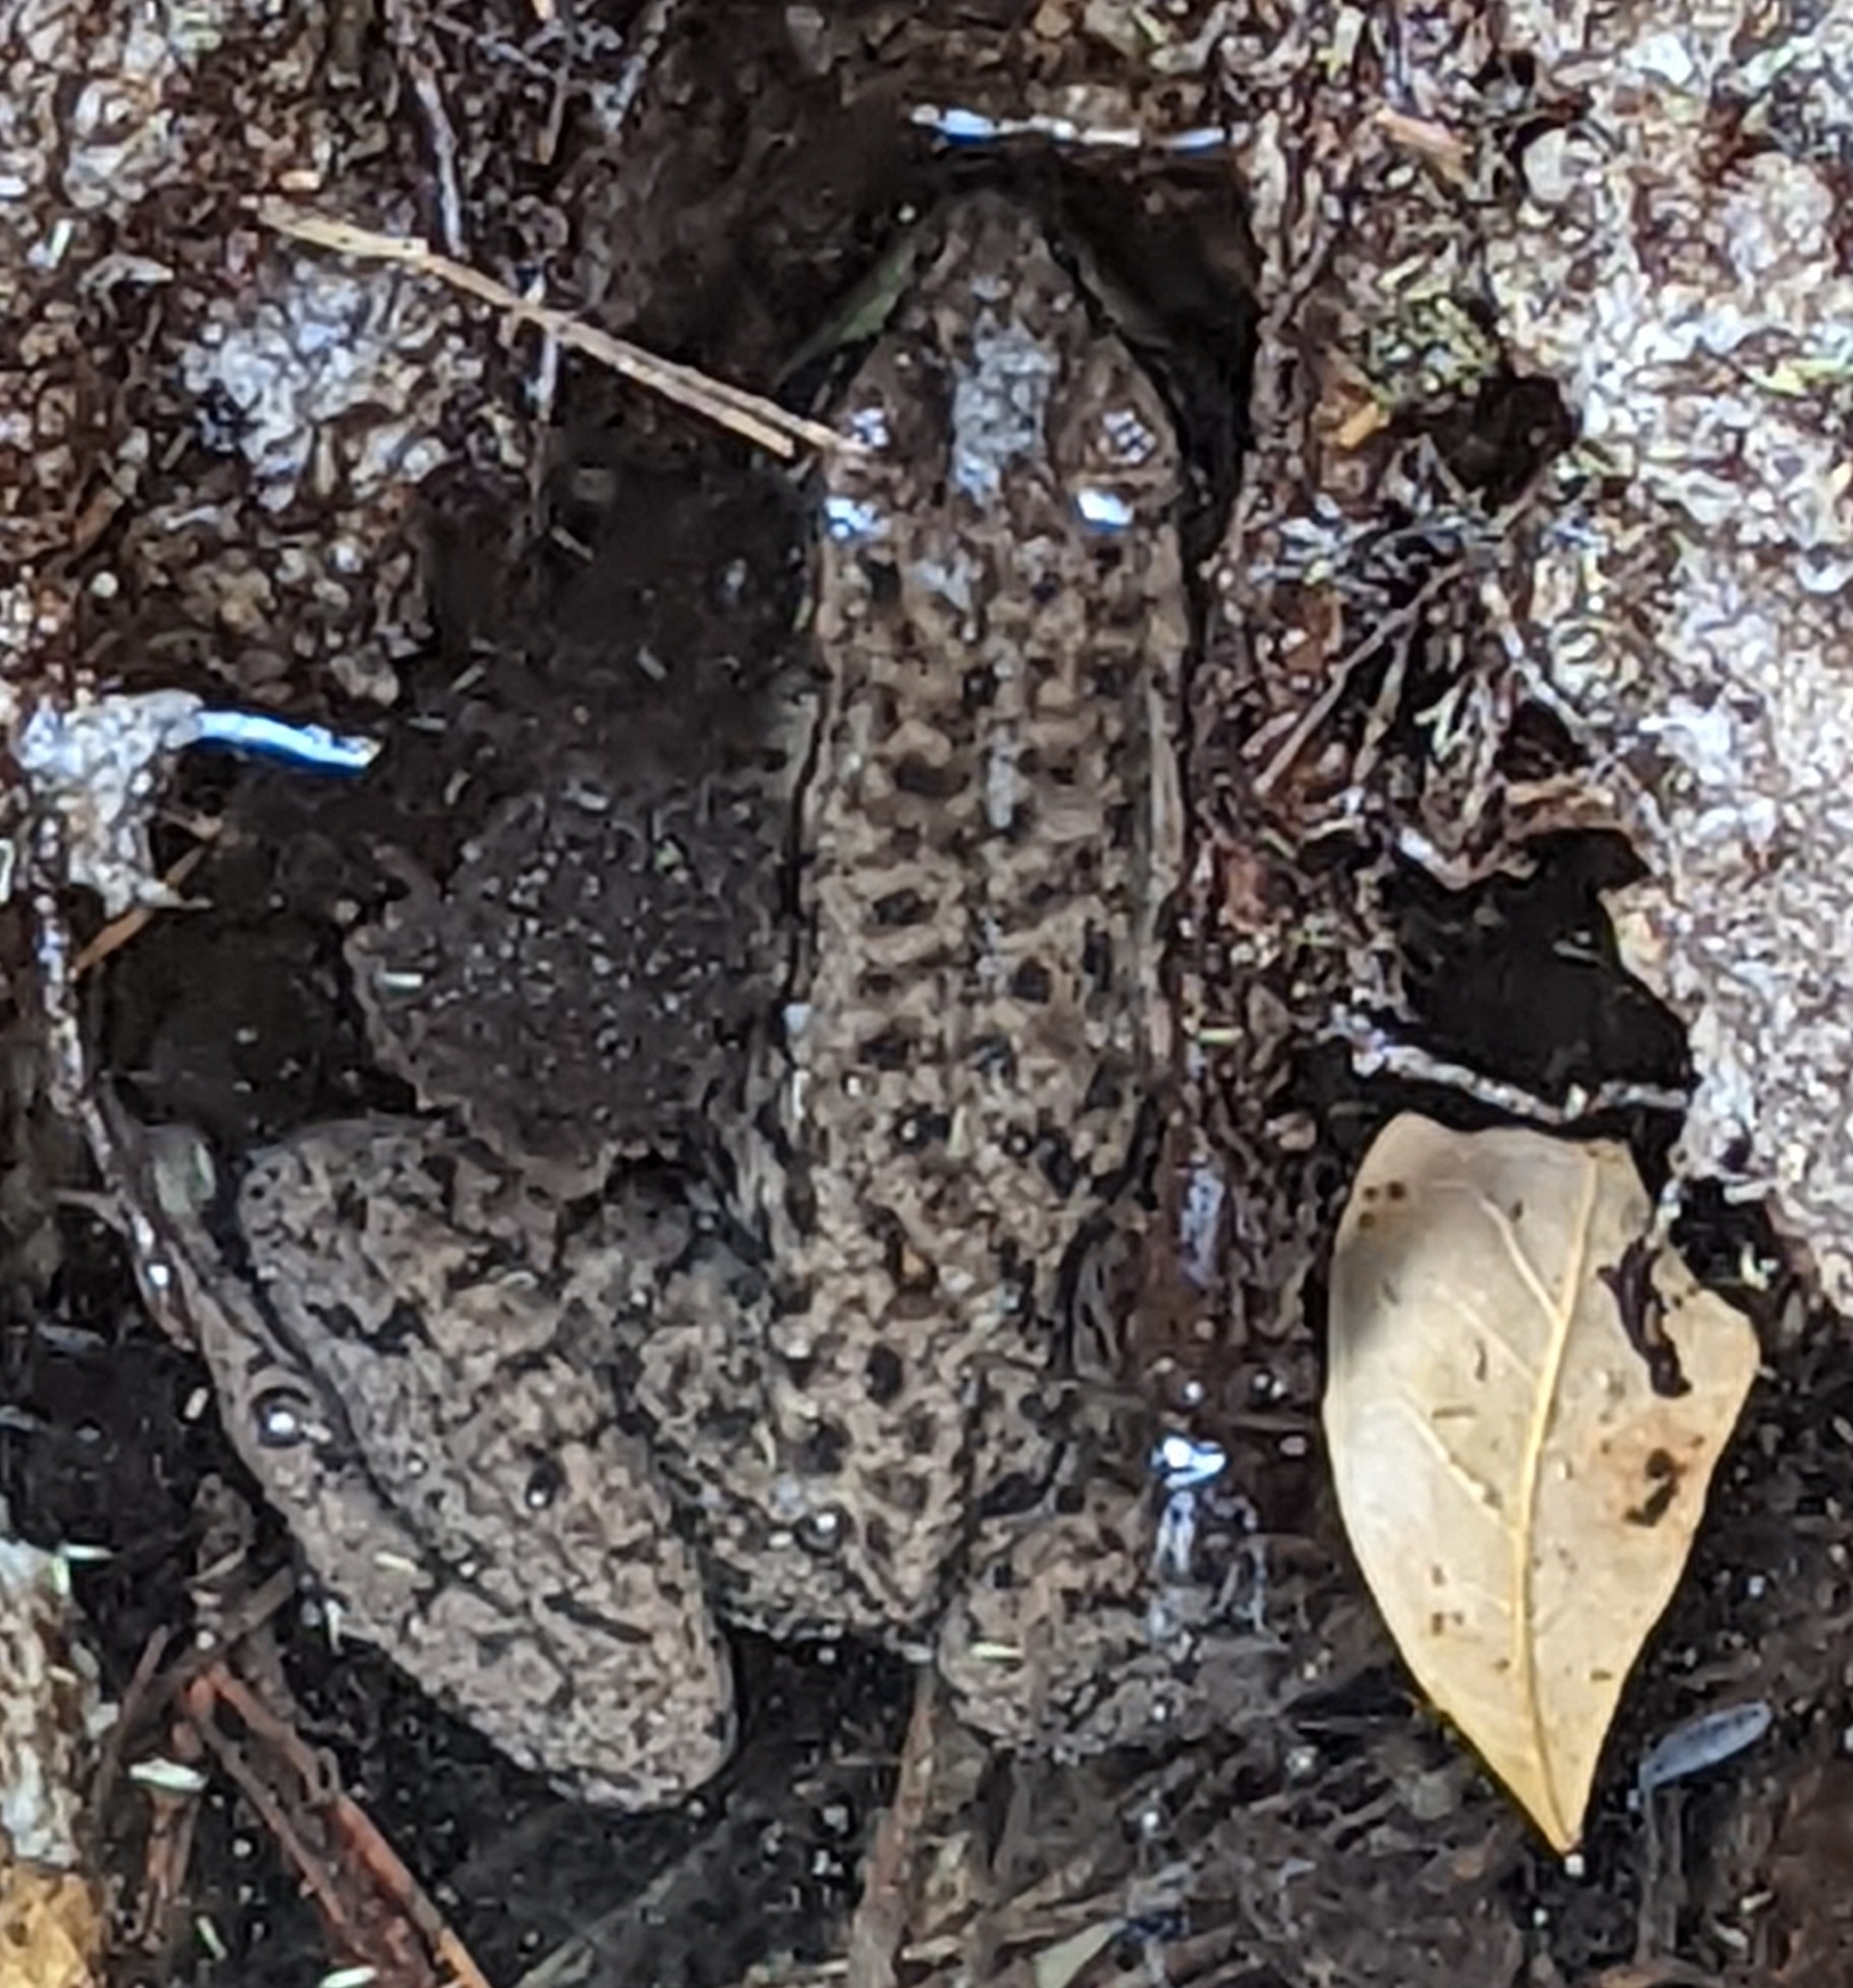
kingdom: Animalia
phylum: Chordata
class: Amphibia
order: Anura
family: Ranidae
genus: Lithobates
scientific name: Lithobates clamitans
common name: Green frog
